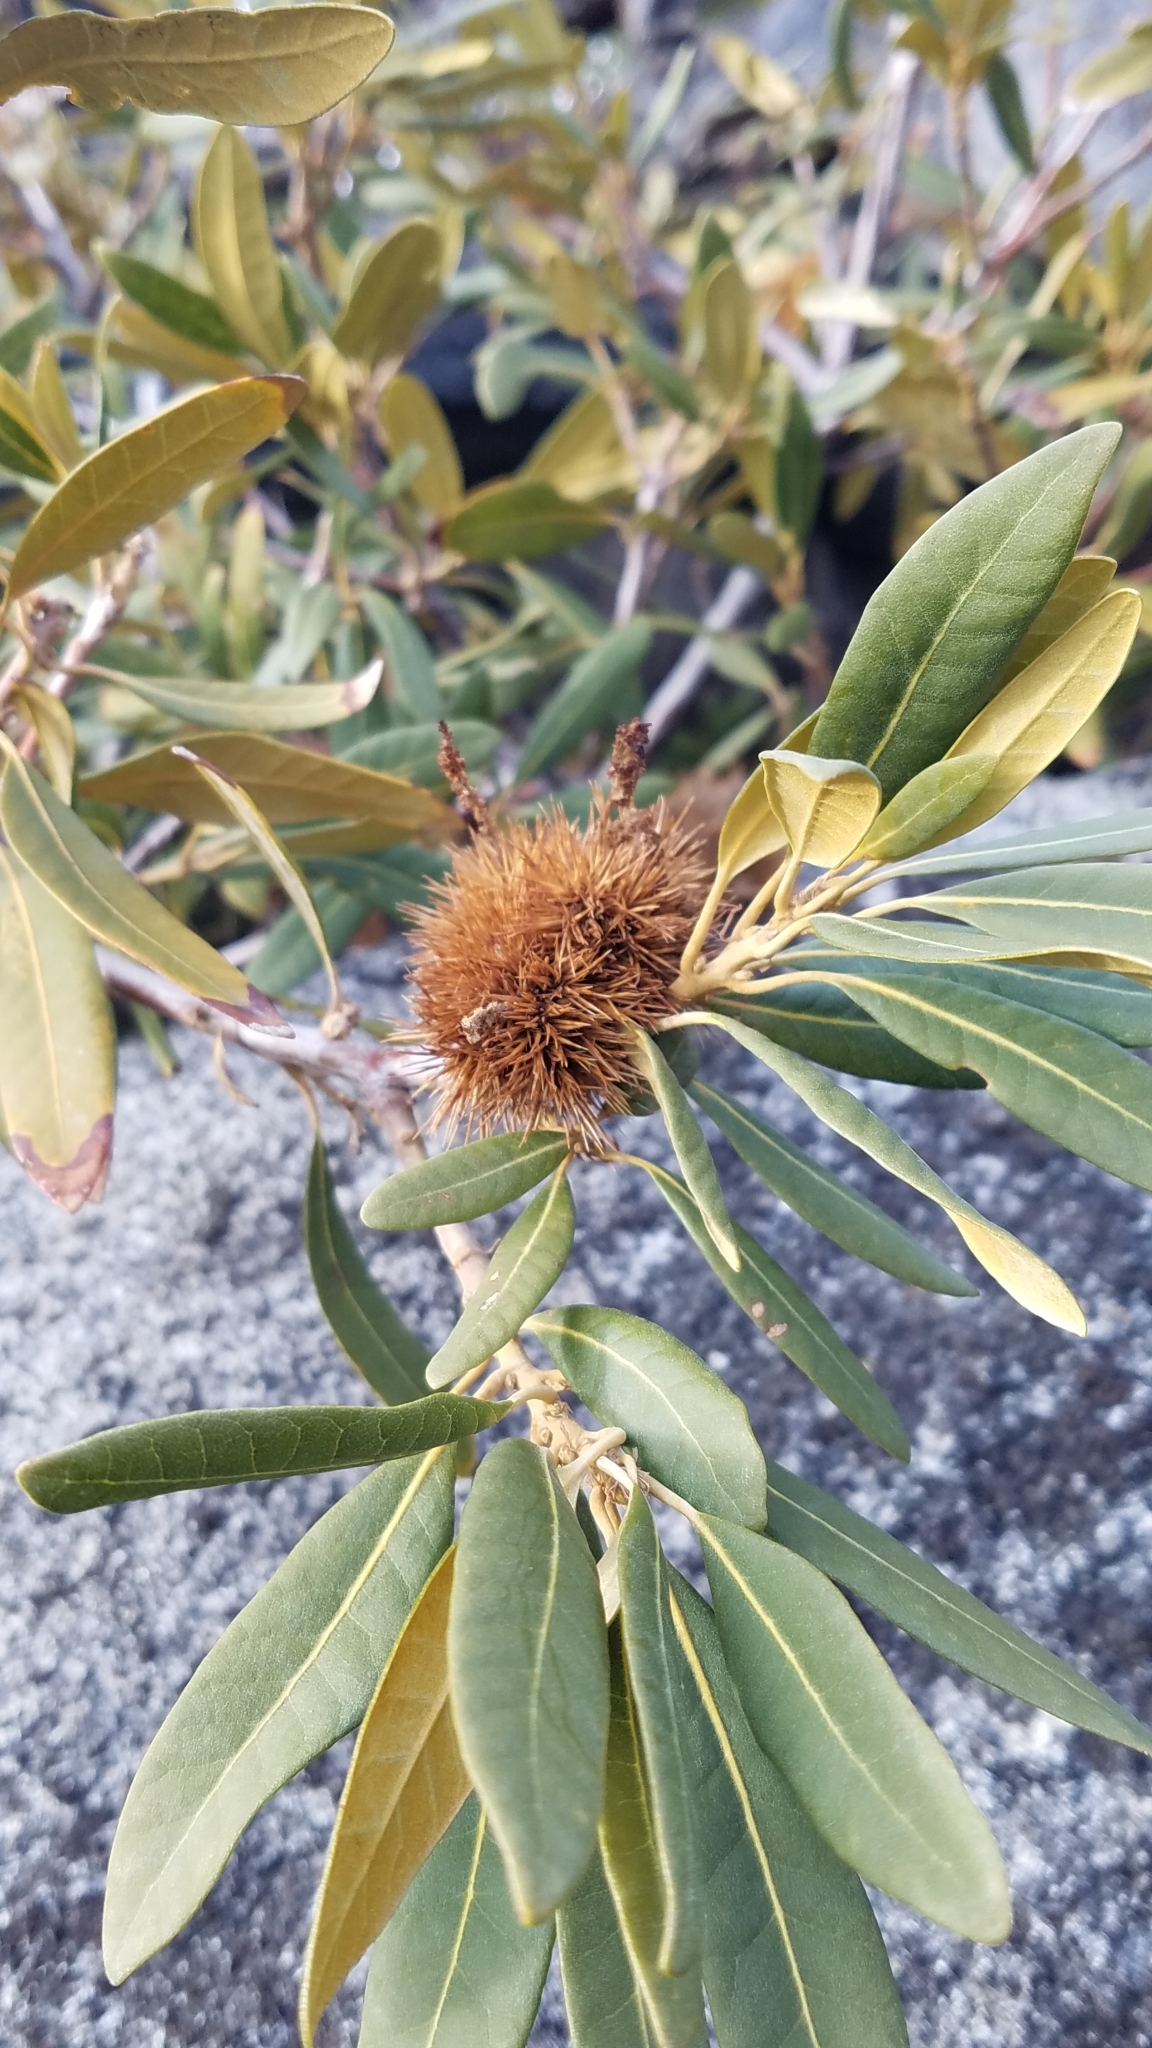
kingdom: Plantae
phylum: Tracheophyta
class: Magnoliopsida
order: Fagales
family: Fagaceae
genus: Chrysolepis
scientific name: Chrysolepis sempervirens
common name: Bush chinquapin
